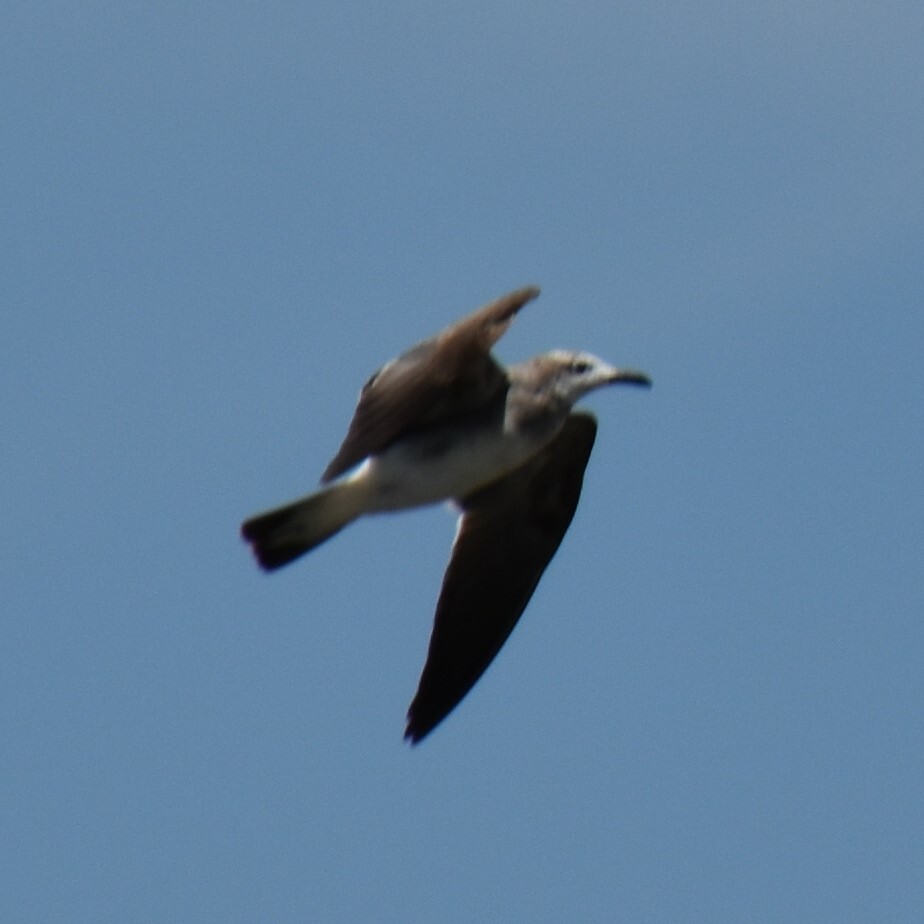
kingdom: Animalia
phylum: Chordata
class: Aves
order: Charadriiformes
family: Laridae
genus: Leucophaeus
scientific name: Leucophaeus atricilla
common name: Laughing gull
